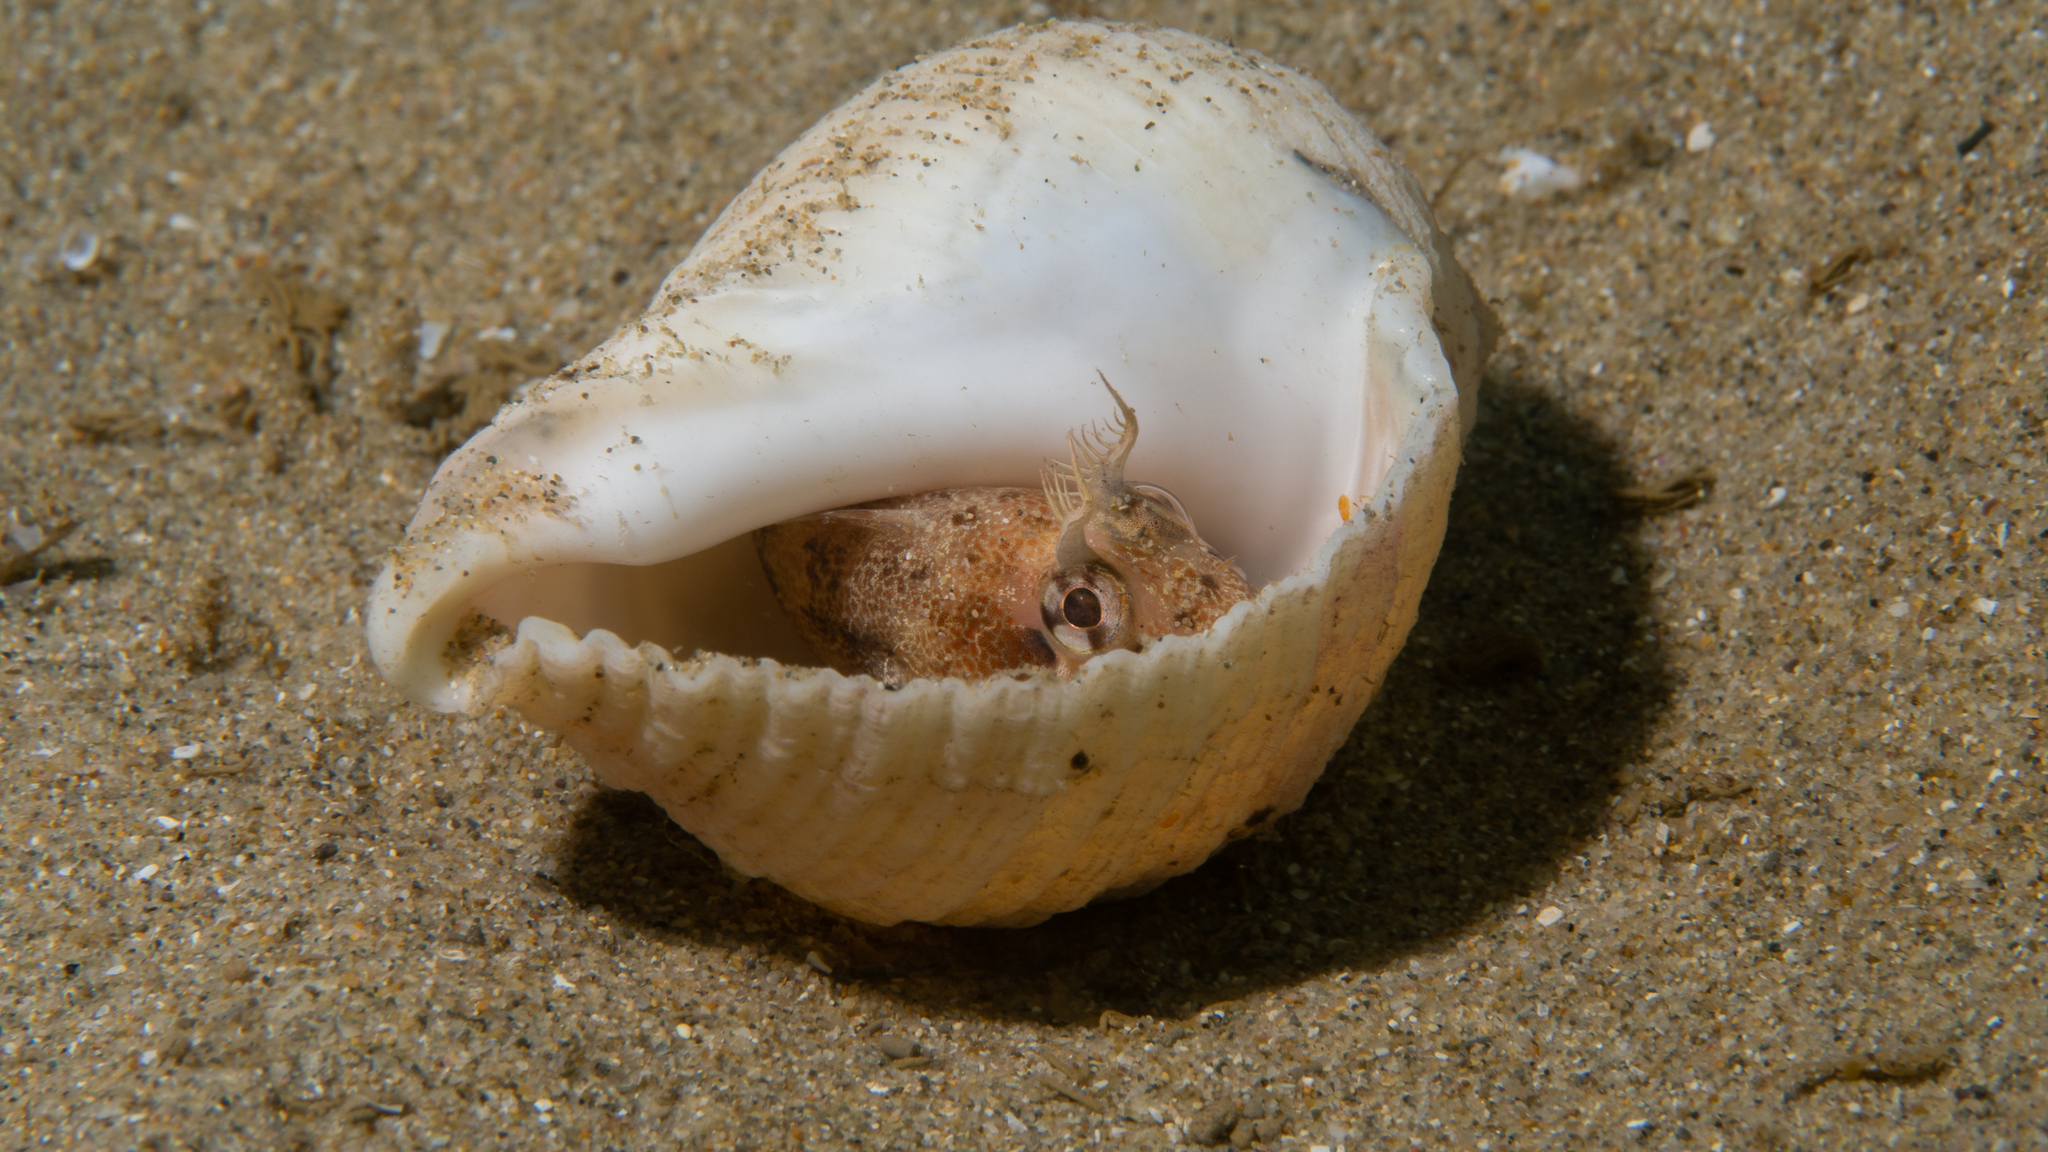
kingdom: Animalia
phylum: Chordata
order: Perciformes
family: Blenniidae
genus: Parablennius
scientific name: Parablennius tasmanianus
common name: Tasmanian blenny
